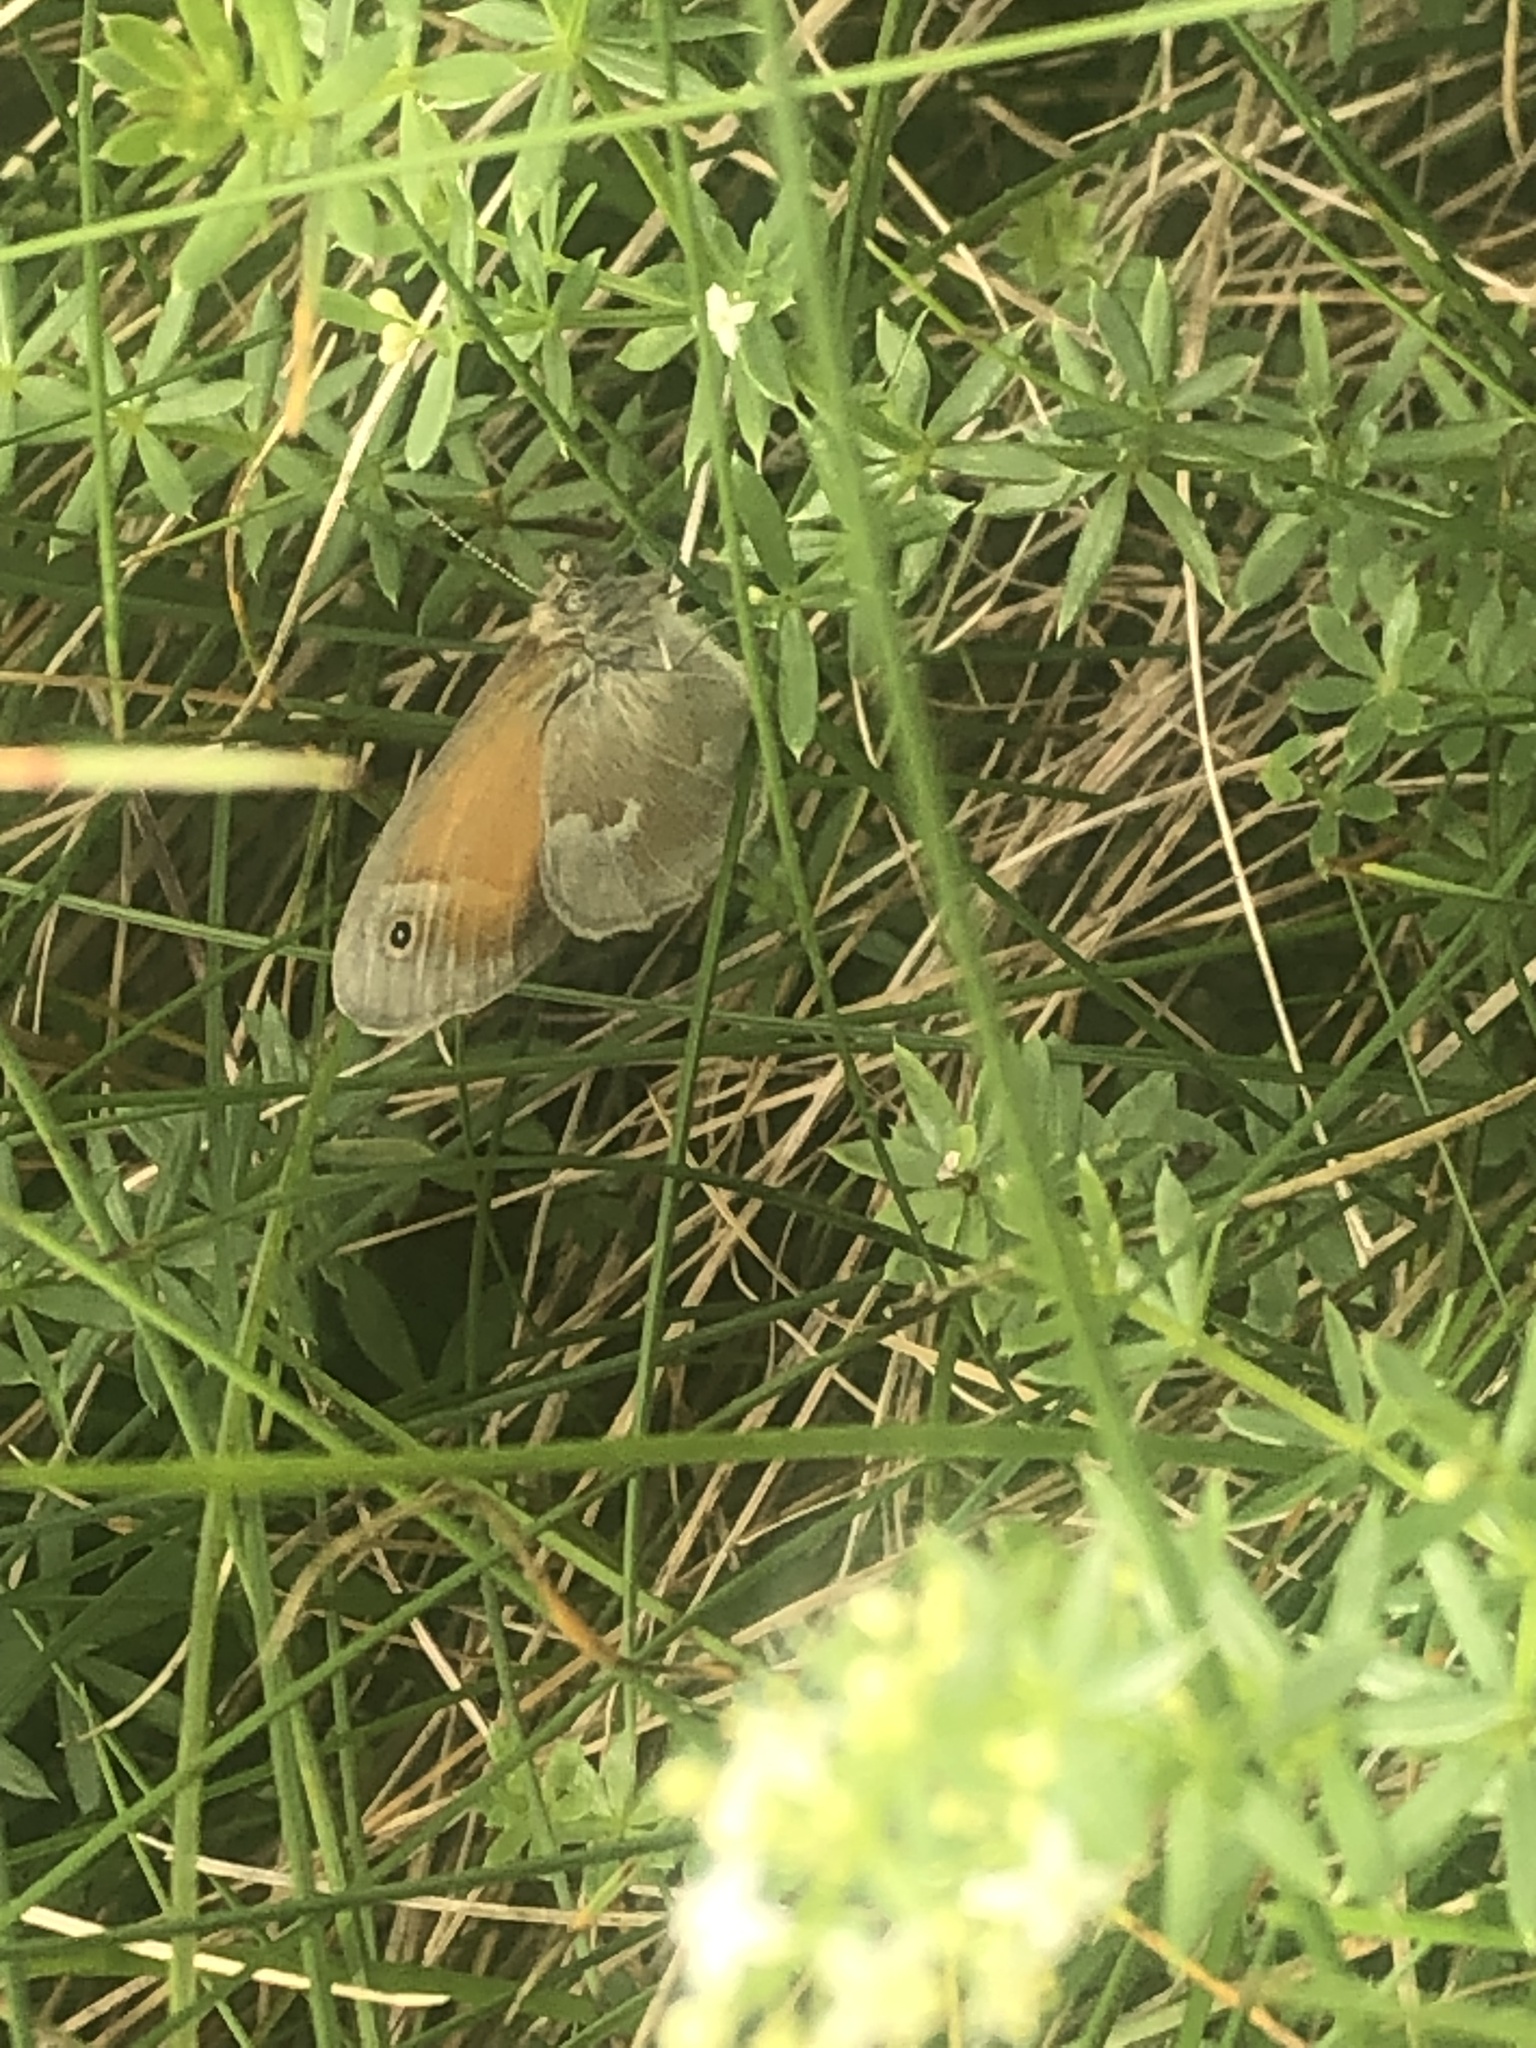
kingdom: Animalia
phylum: Arthropoda
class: Insecta
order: Lepidoptera
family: Nymphalidae
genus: Coenonympha
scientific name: Coenonympha california
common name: Common ringlet
